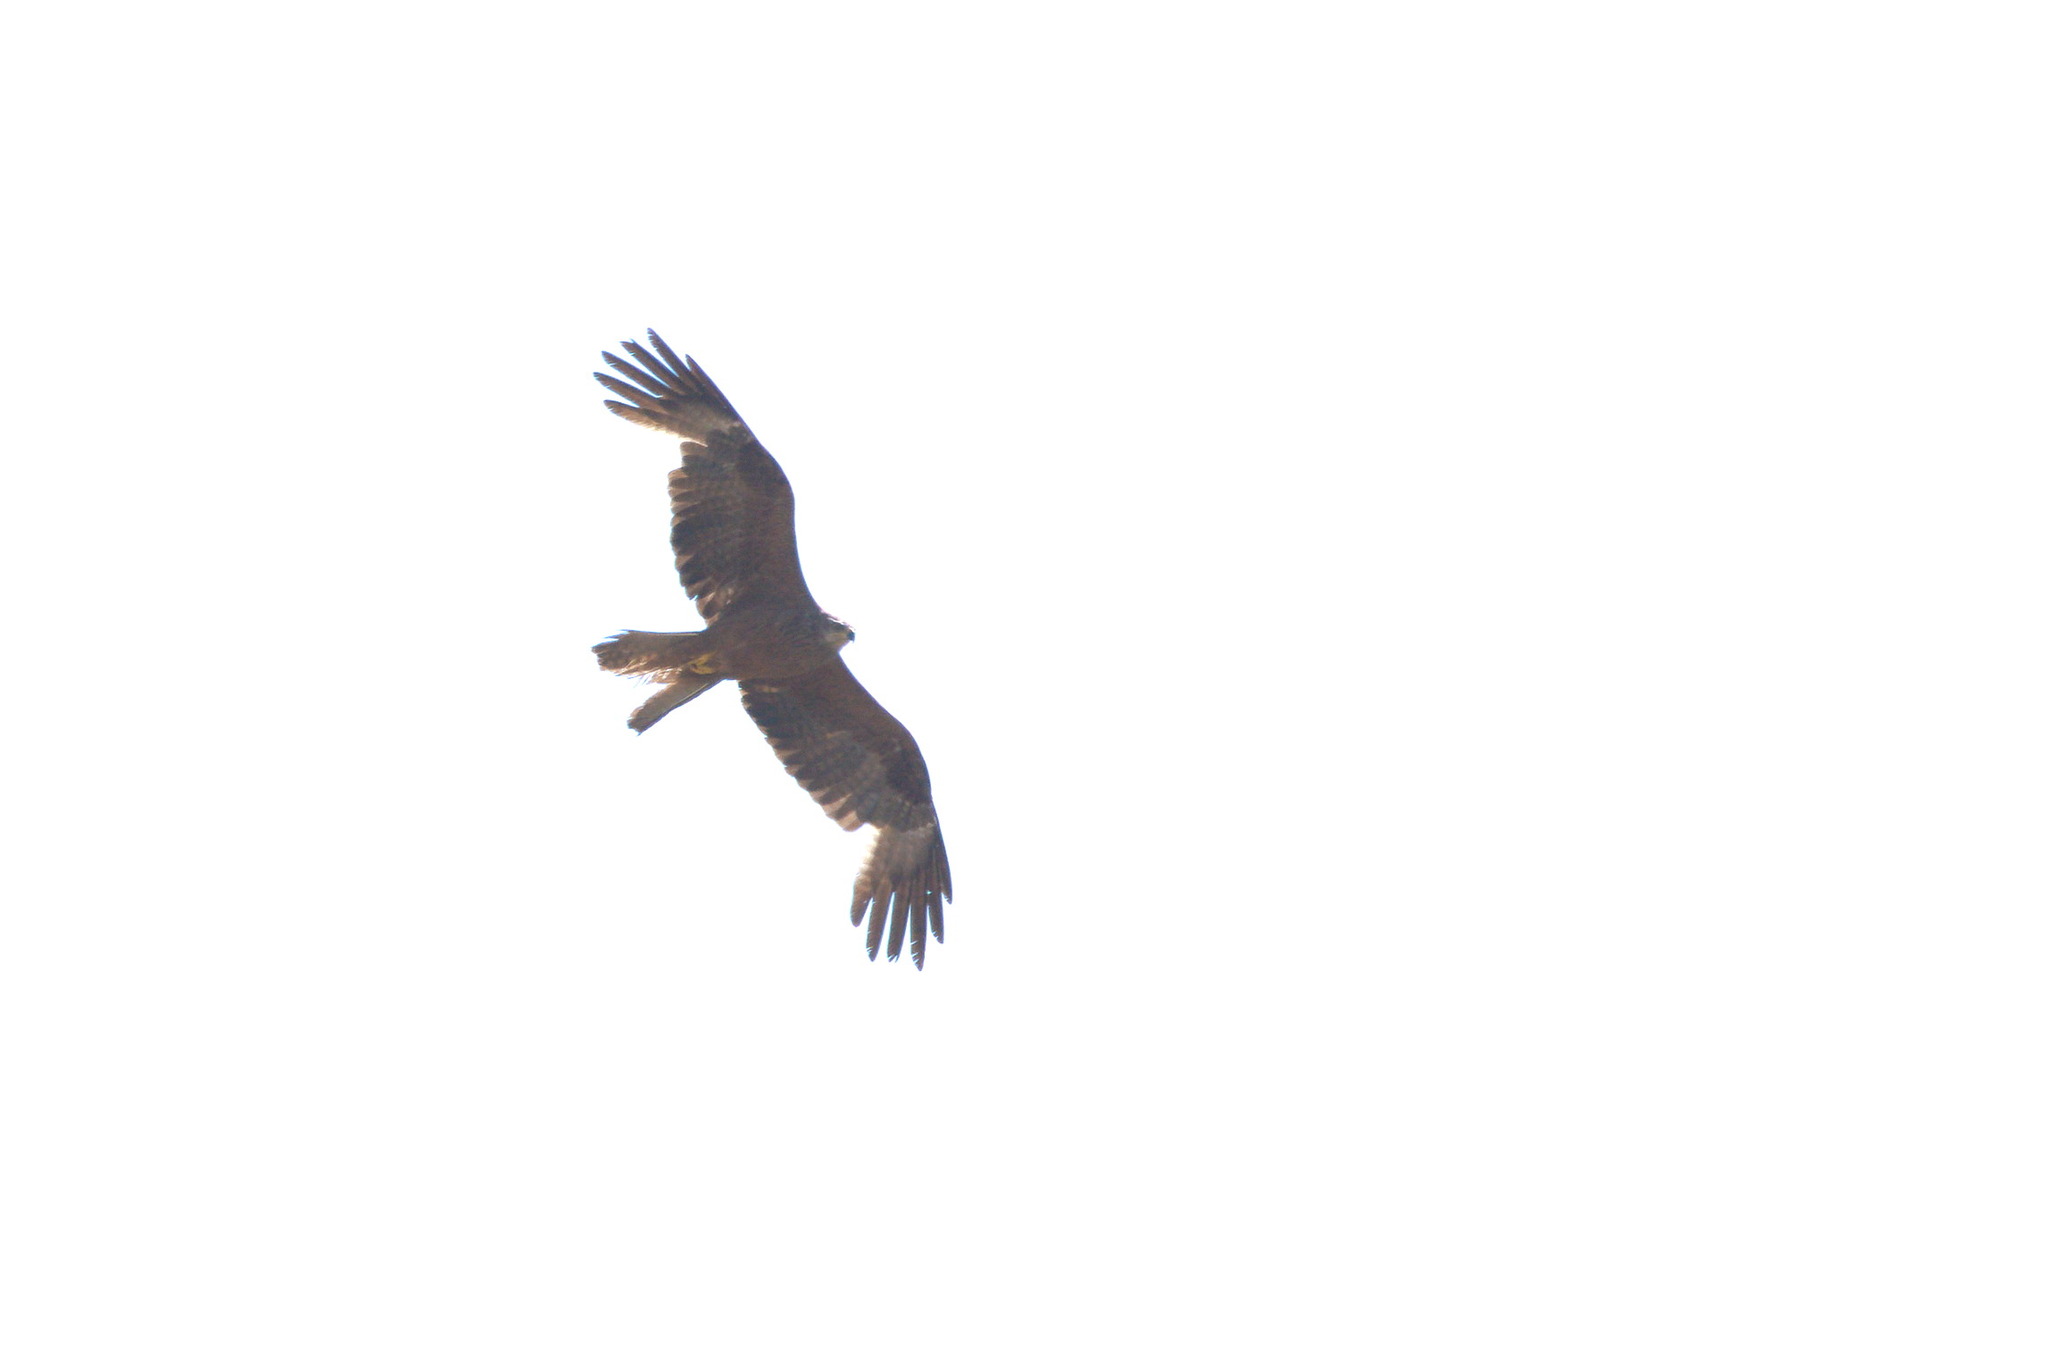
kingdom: Animalia
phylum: Chordata
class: Aves
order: Accipitriformes
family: Accipitridae
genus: Milvus
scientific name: Milvus migrans
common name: Black kite
